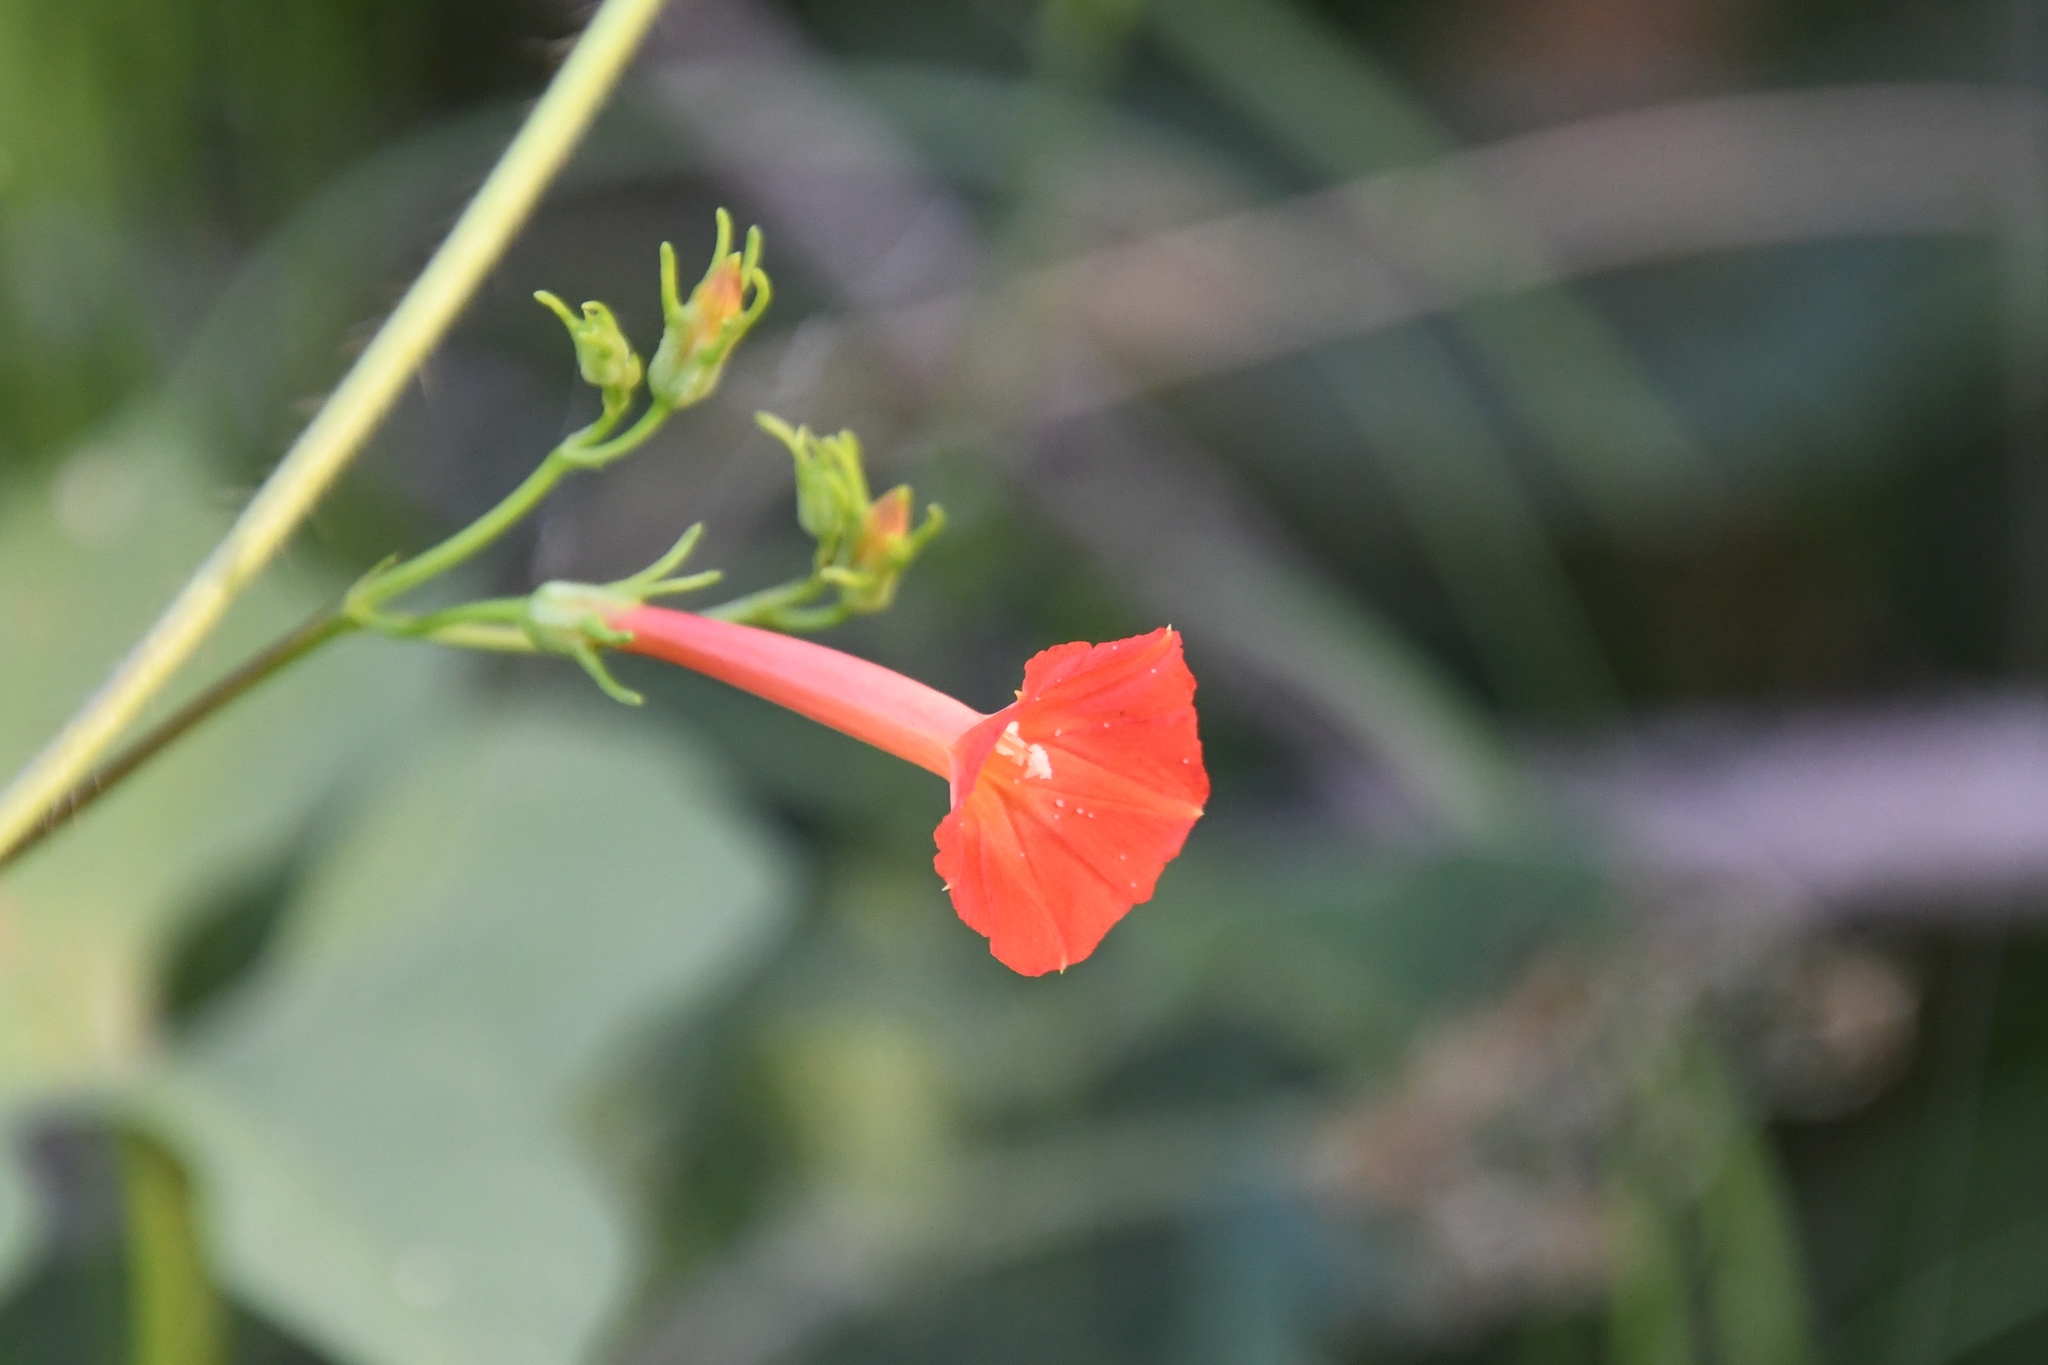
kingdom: Plantae
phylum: Tracheophyta
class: Magnoliopsida
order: Solanales
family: Convolvulaceae
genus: Ipomoea
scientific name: Ipomoea cristulata
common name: Trans-pecos morning-glory
